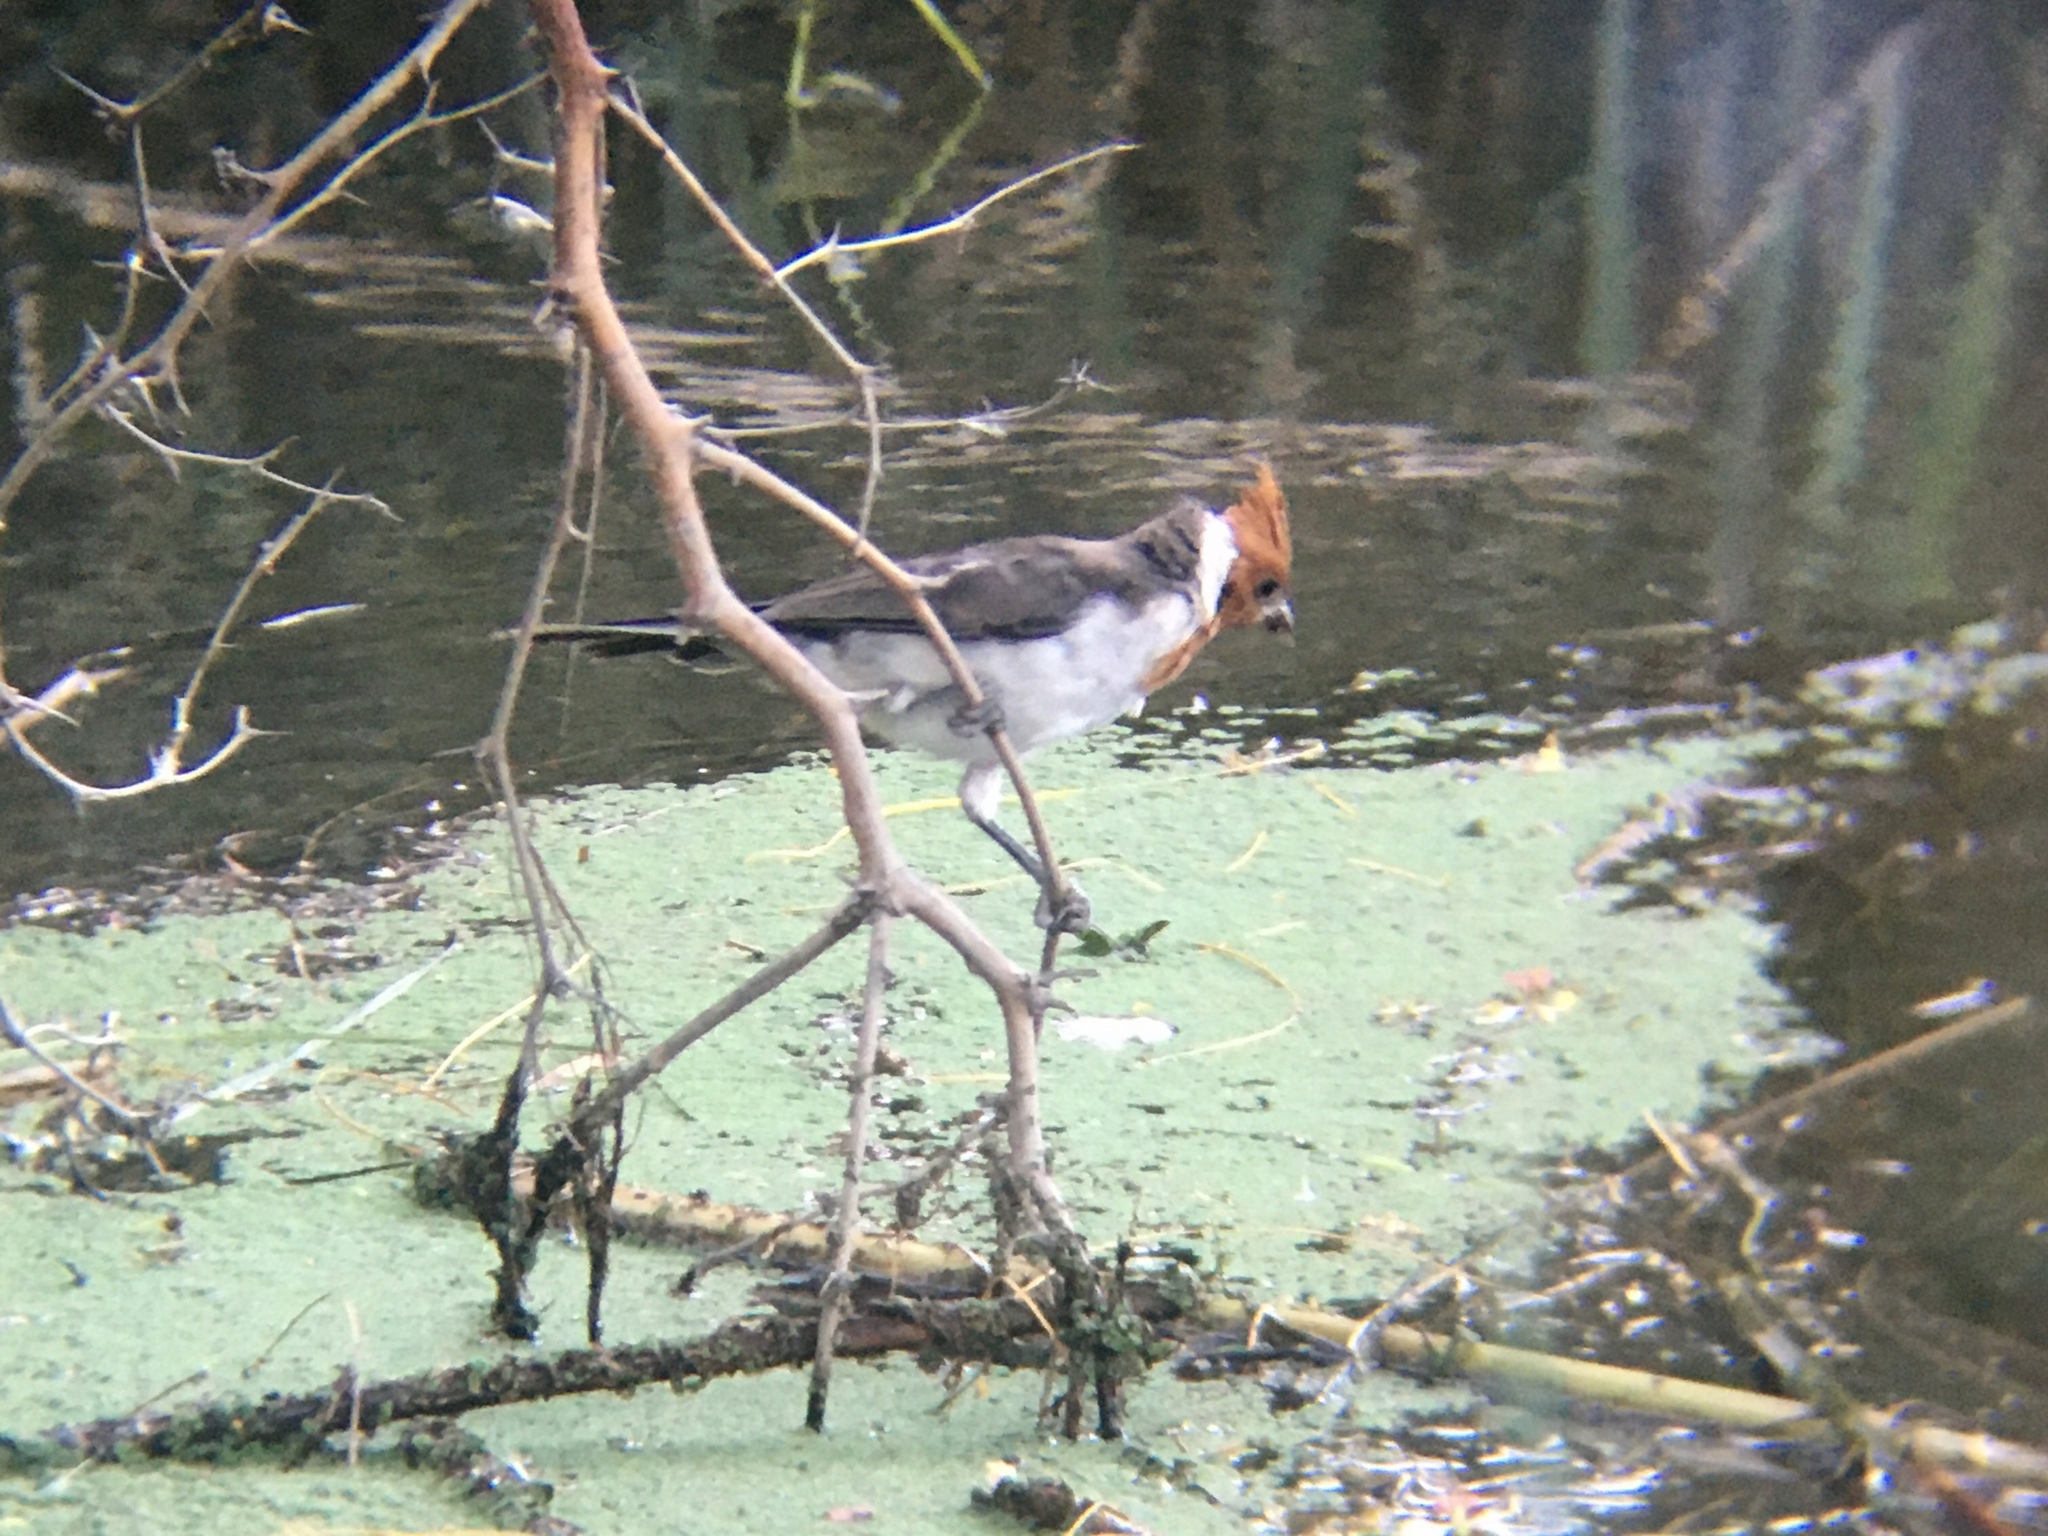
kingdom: Animalia
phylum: Chordata
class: Aves
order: Passeriformes
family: Thraupidae
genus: Paroaria
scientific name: Paroaria coronata
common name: Red-crested cardinal
